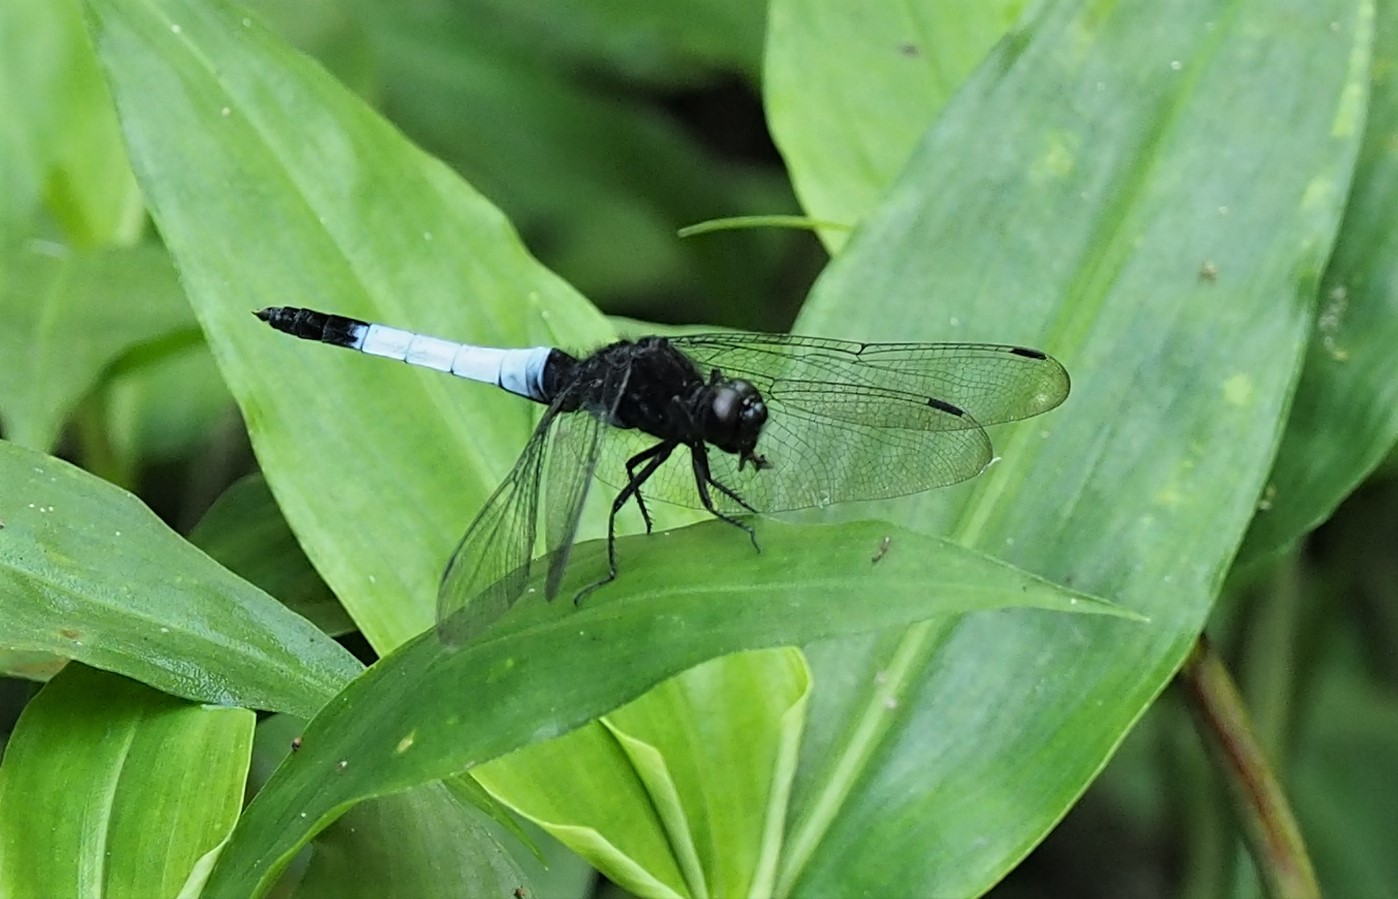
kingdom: Animalia
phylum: Arthropoda
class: Insecta
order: Odonata
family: Libellulidae
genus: Orthetrum
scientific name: Orthetrum triangulare
